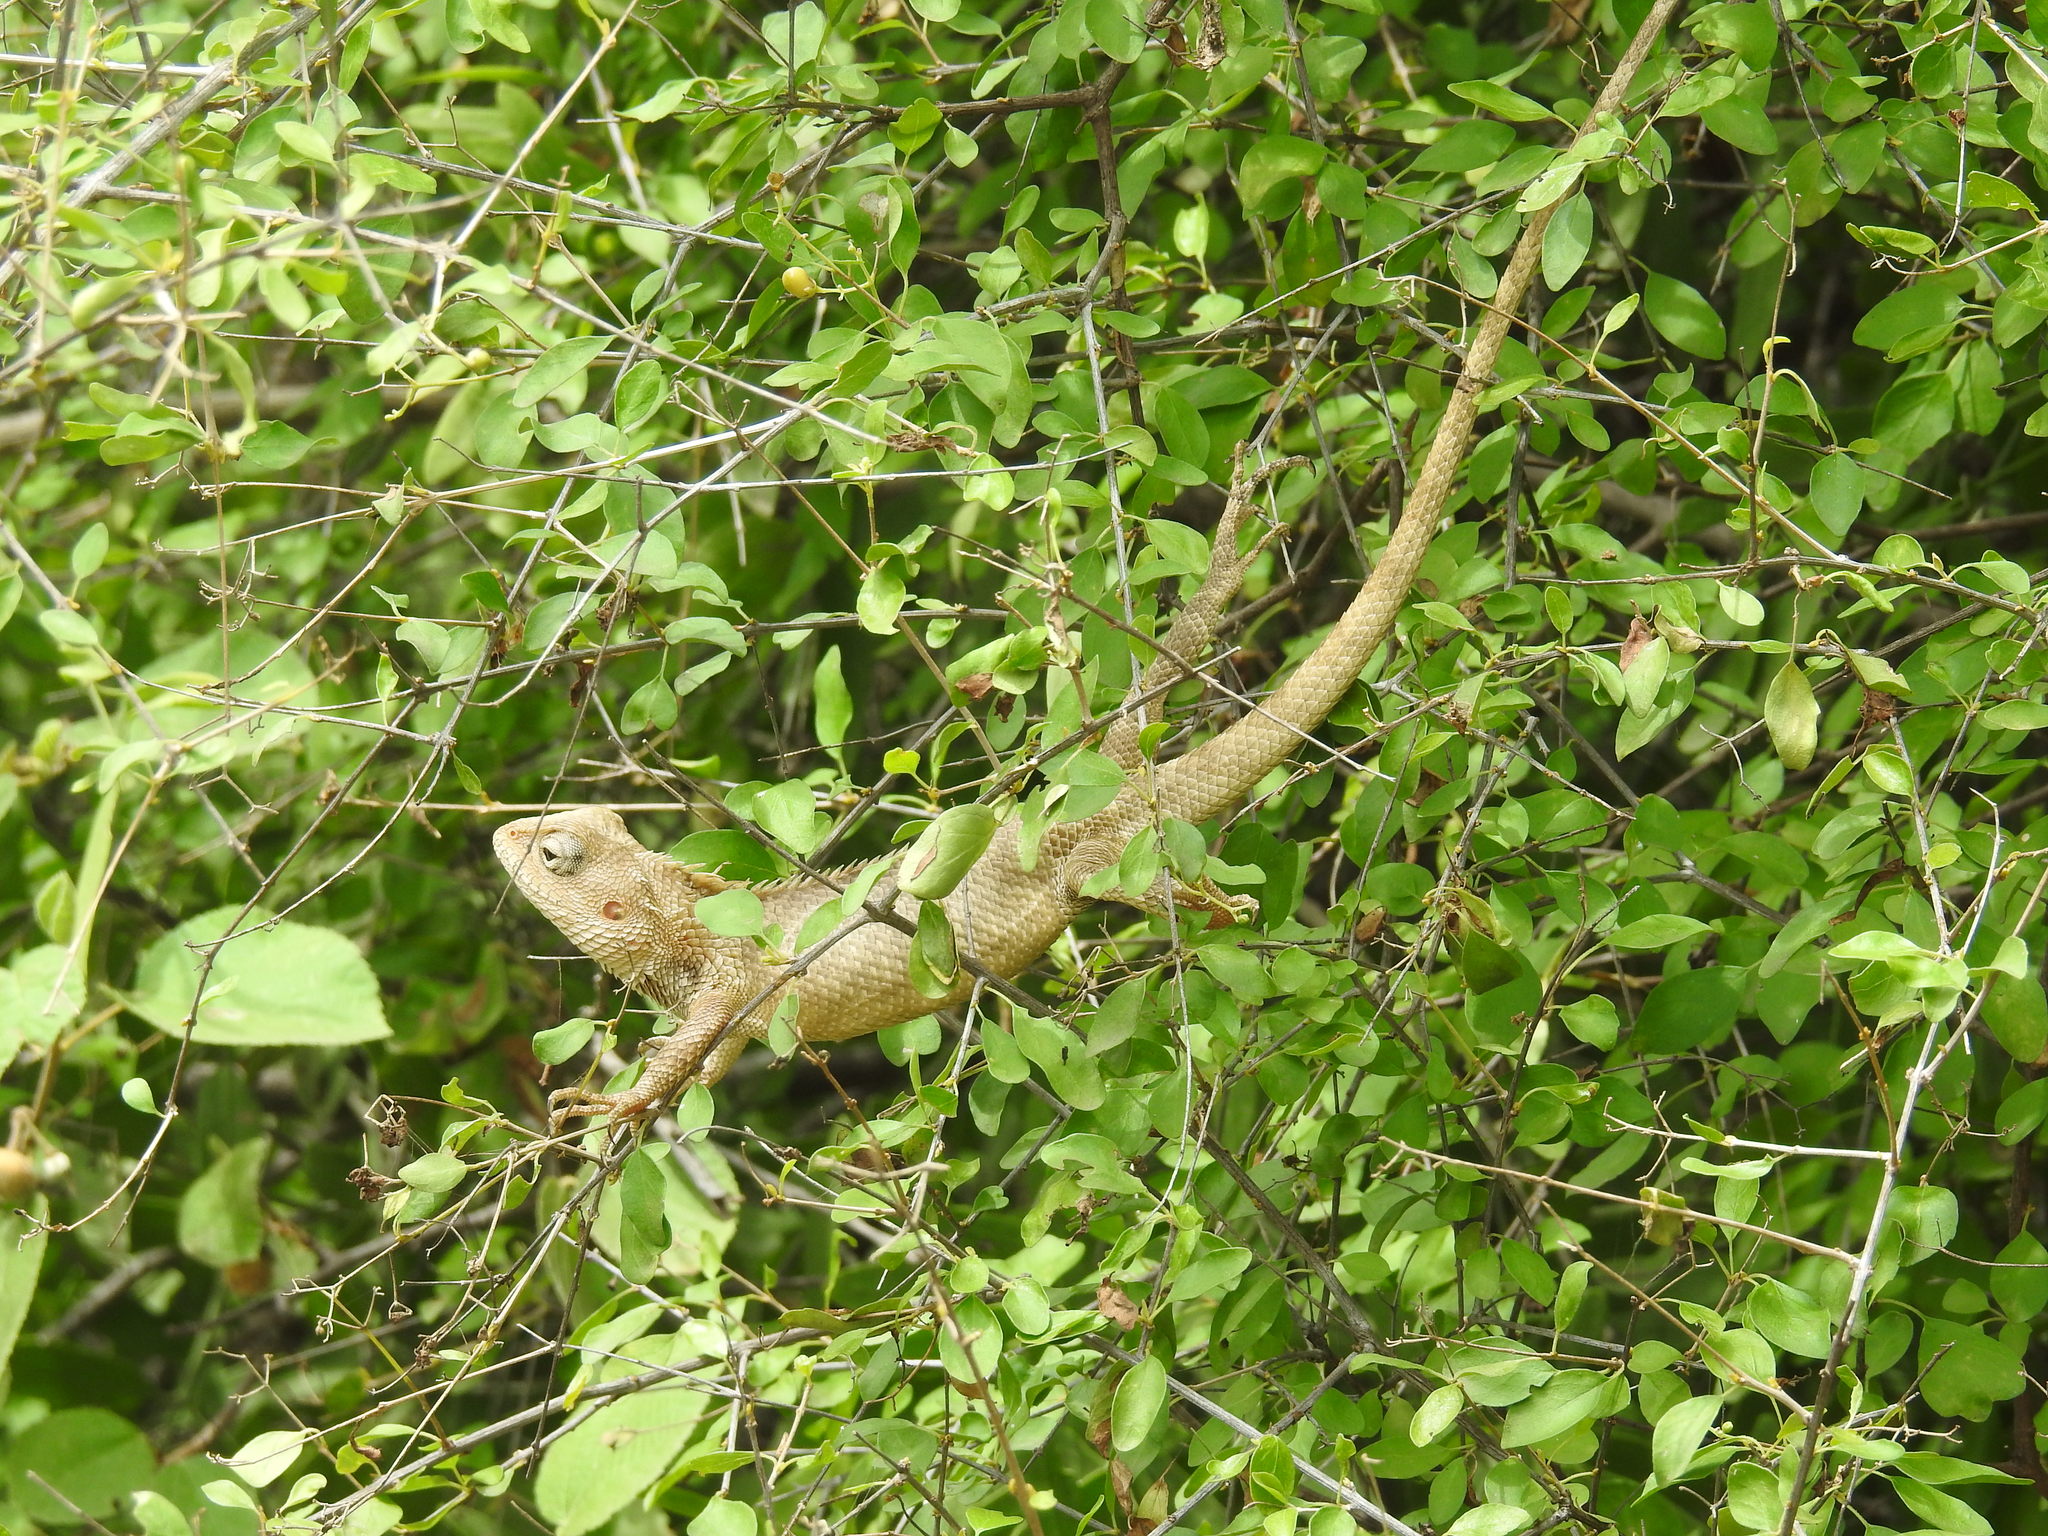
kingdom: Animalia
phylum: Chordata
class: Squamata
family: Agamidae
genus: Calotes
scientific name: Calotes versicolor
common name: Oriental garden lizard
